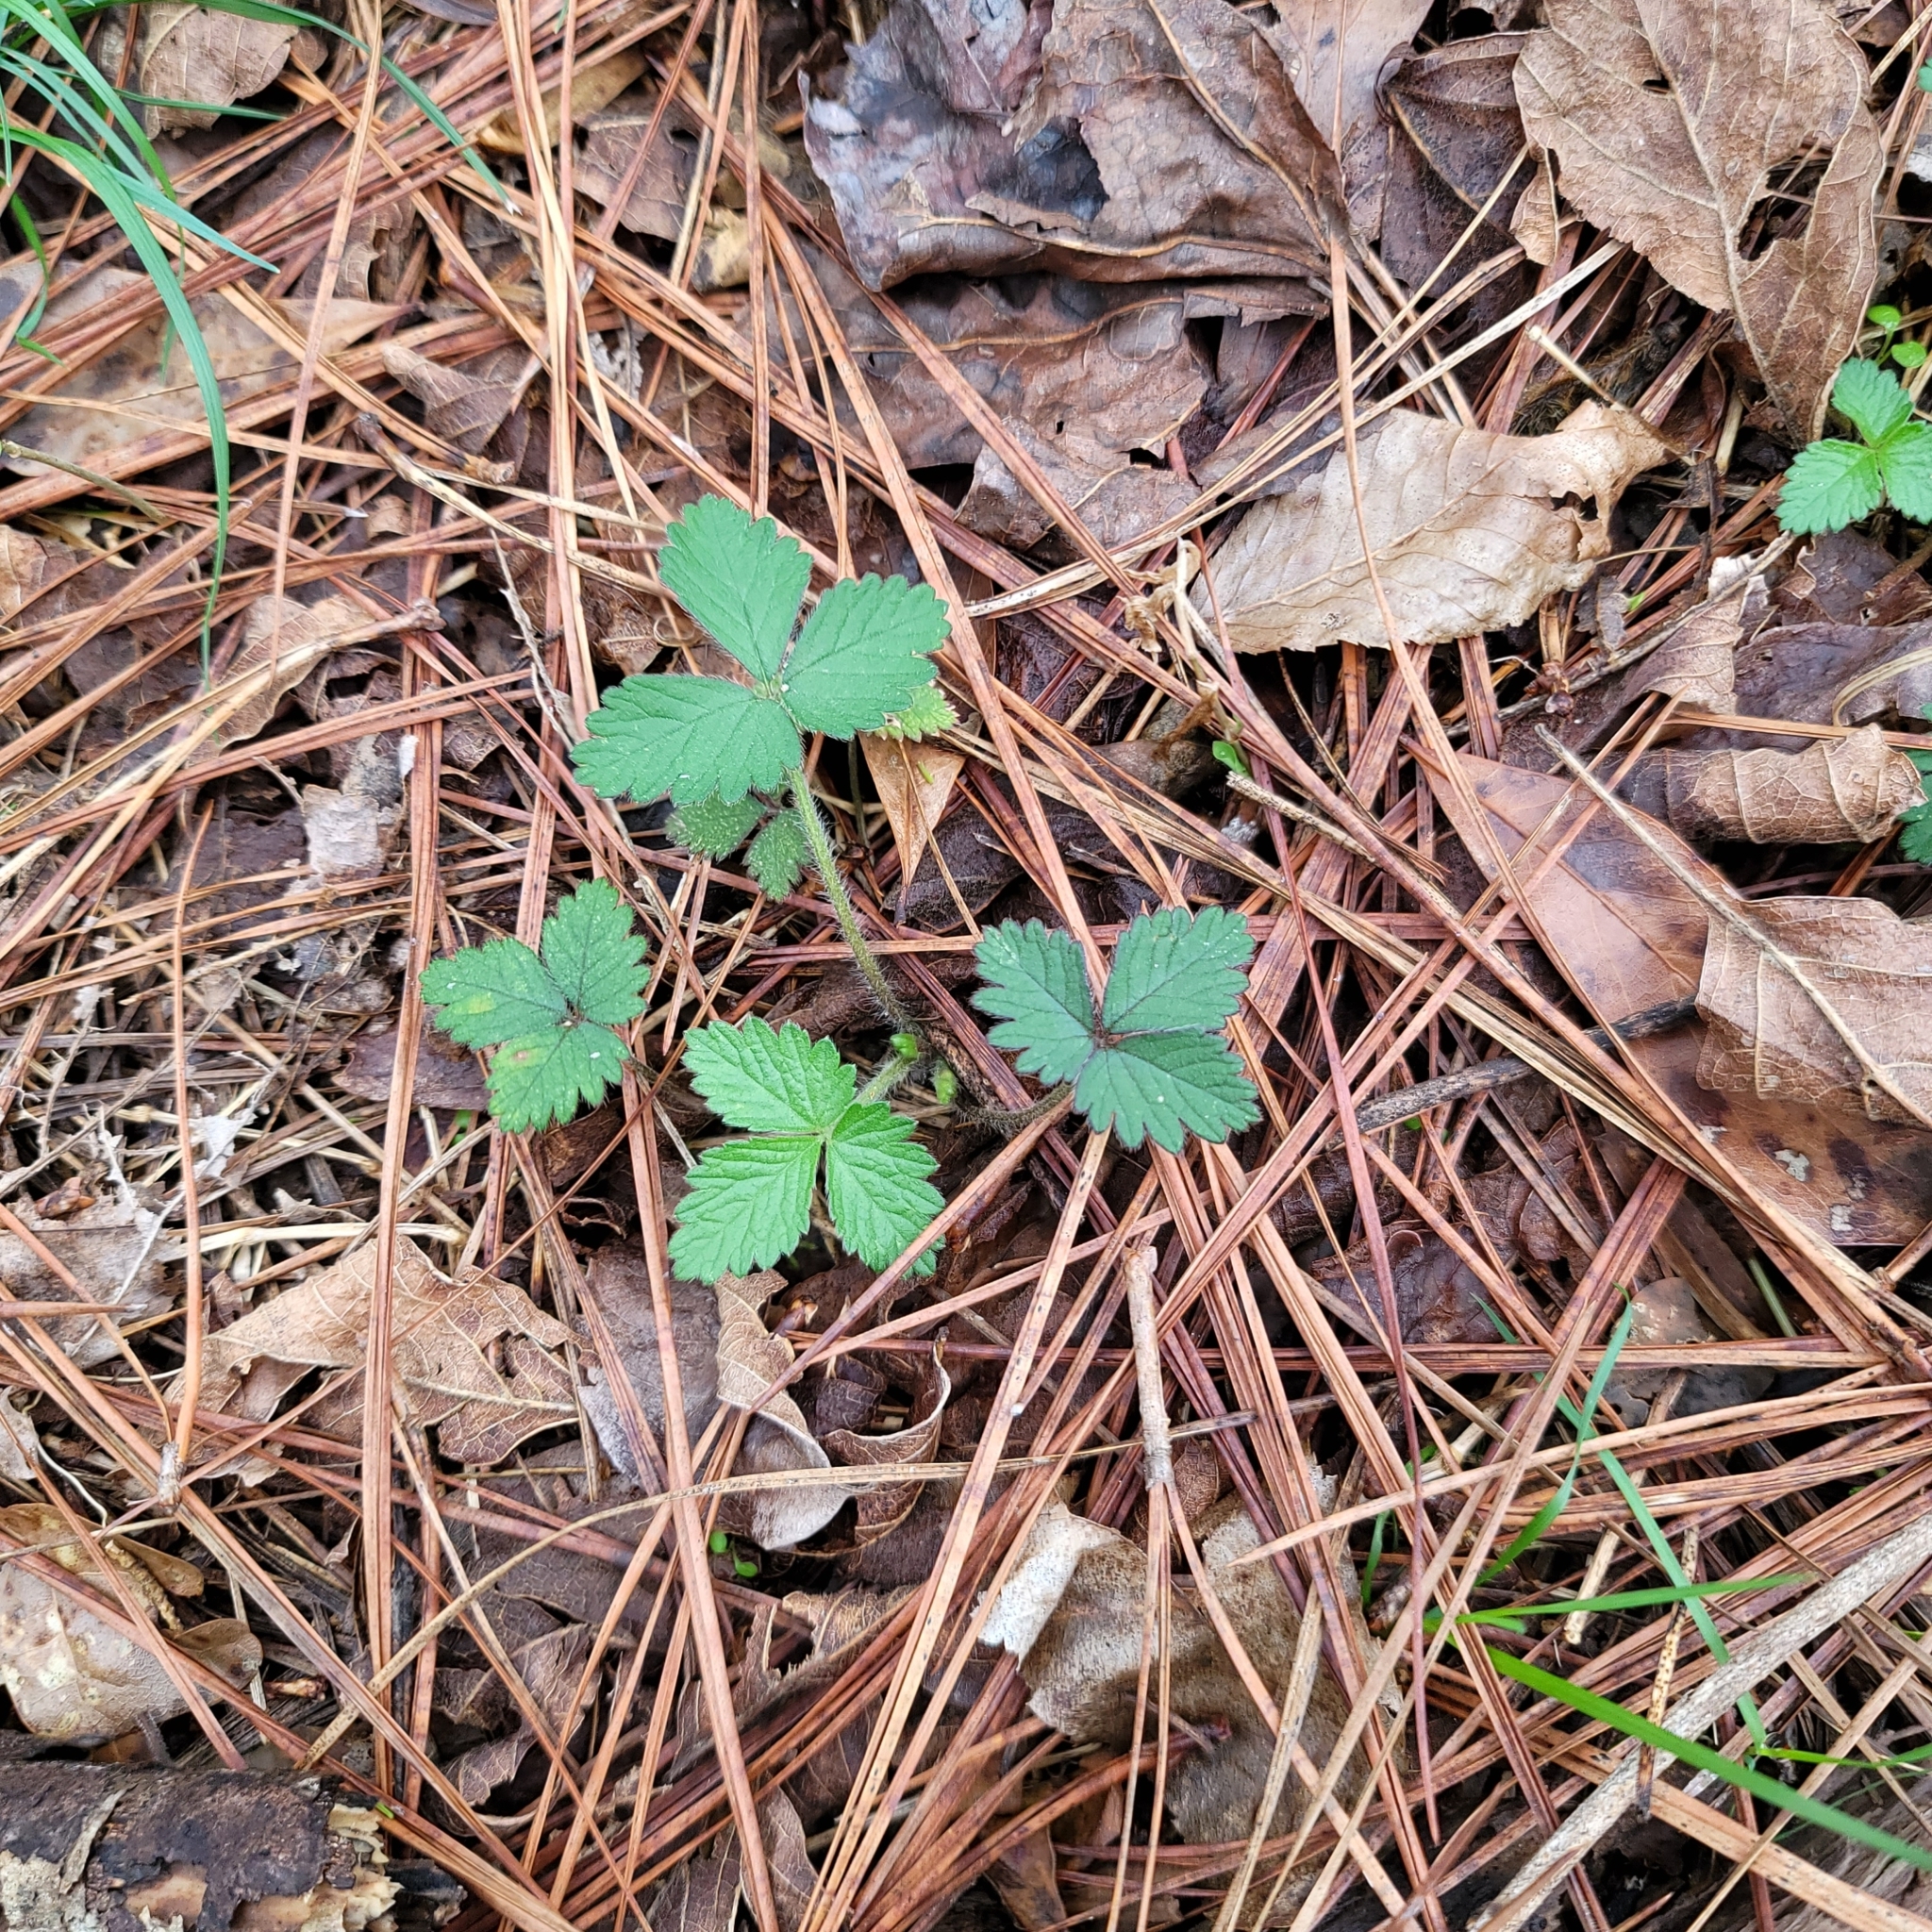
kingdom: Plantae
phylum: Tracheophyta
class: Magnoliopsida
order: Rosales
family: Rosaceae
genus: Potentilla
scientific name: Potentilla indica
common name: Yellow-flowered strawberry
